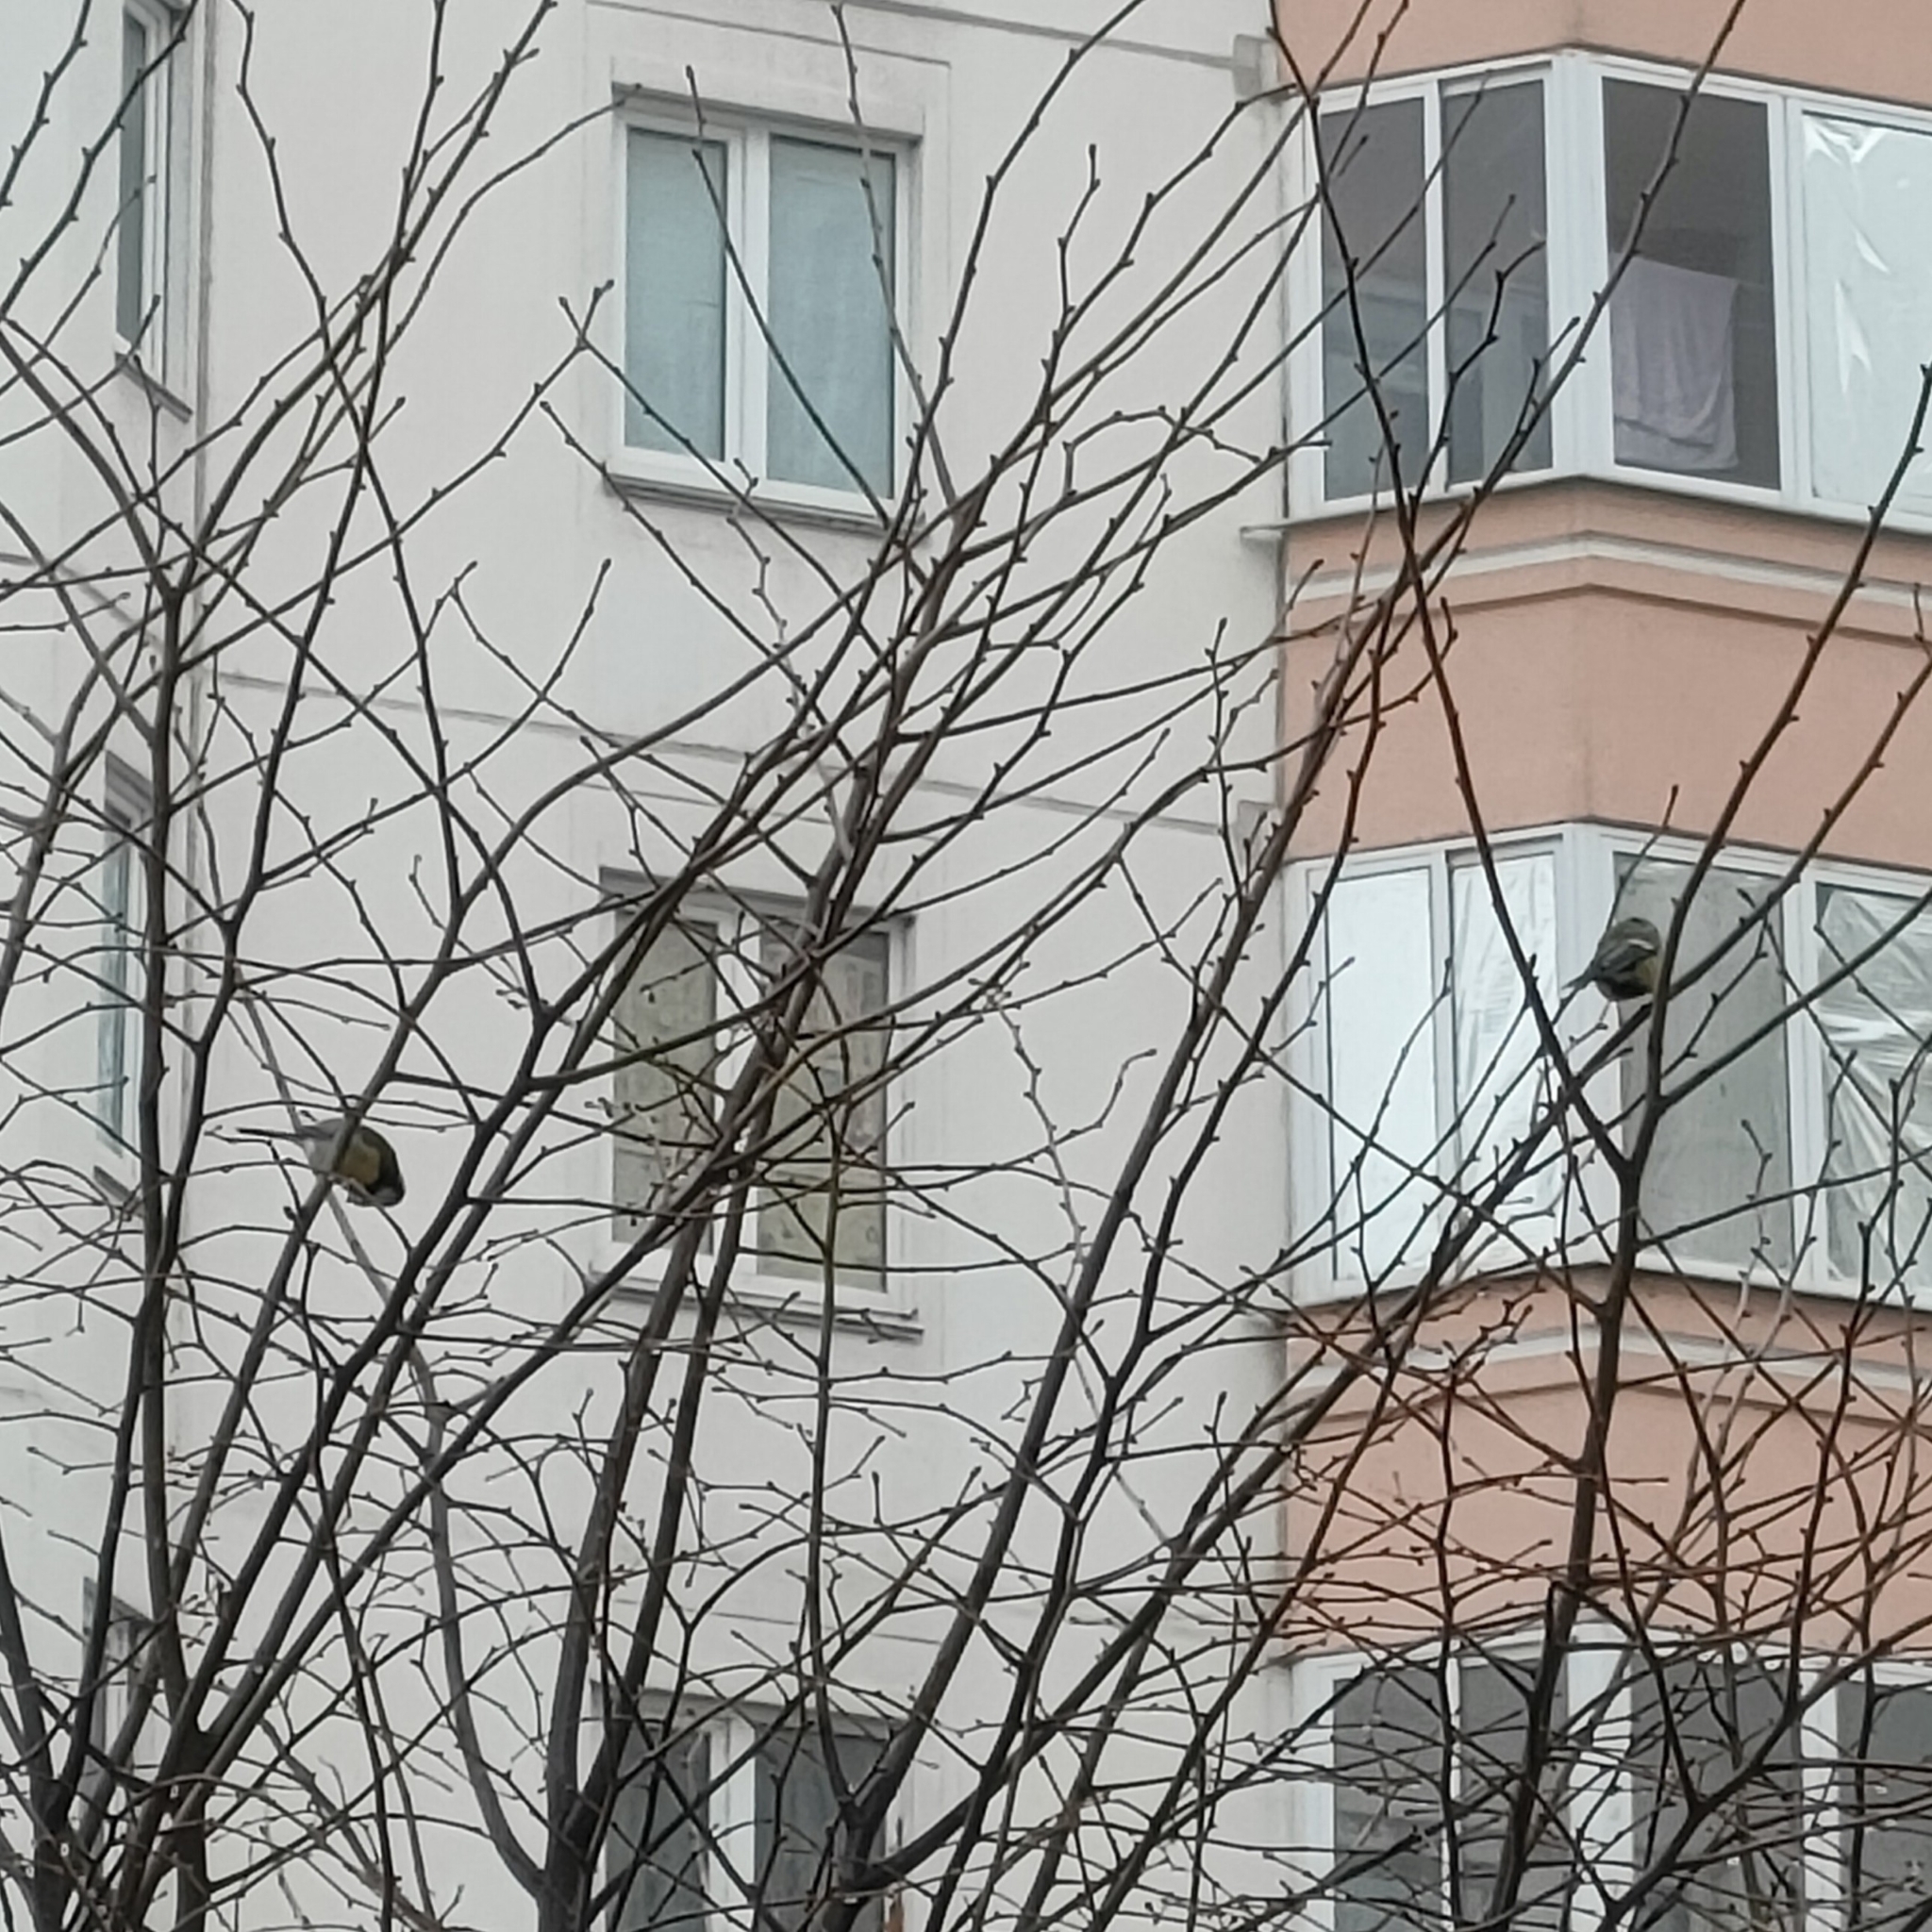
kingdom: Animalia
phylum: Chordata
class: Aves
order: Passeriformes
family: Paridae
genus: Parus
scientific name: Parus major
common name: Great tit
